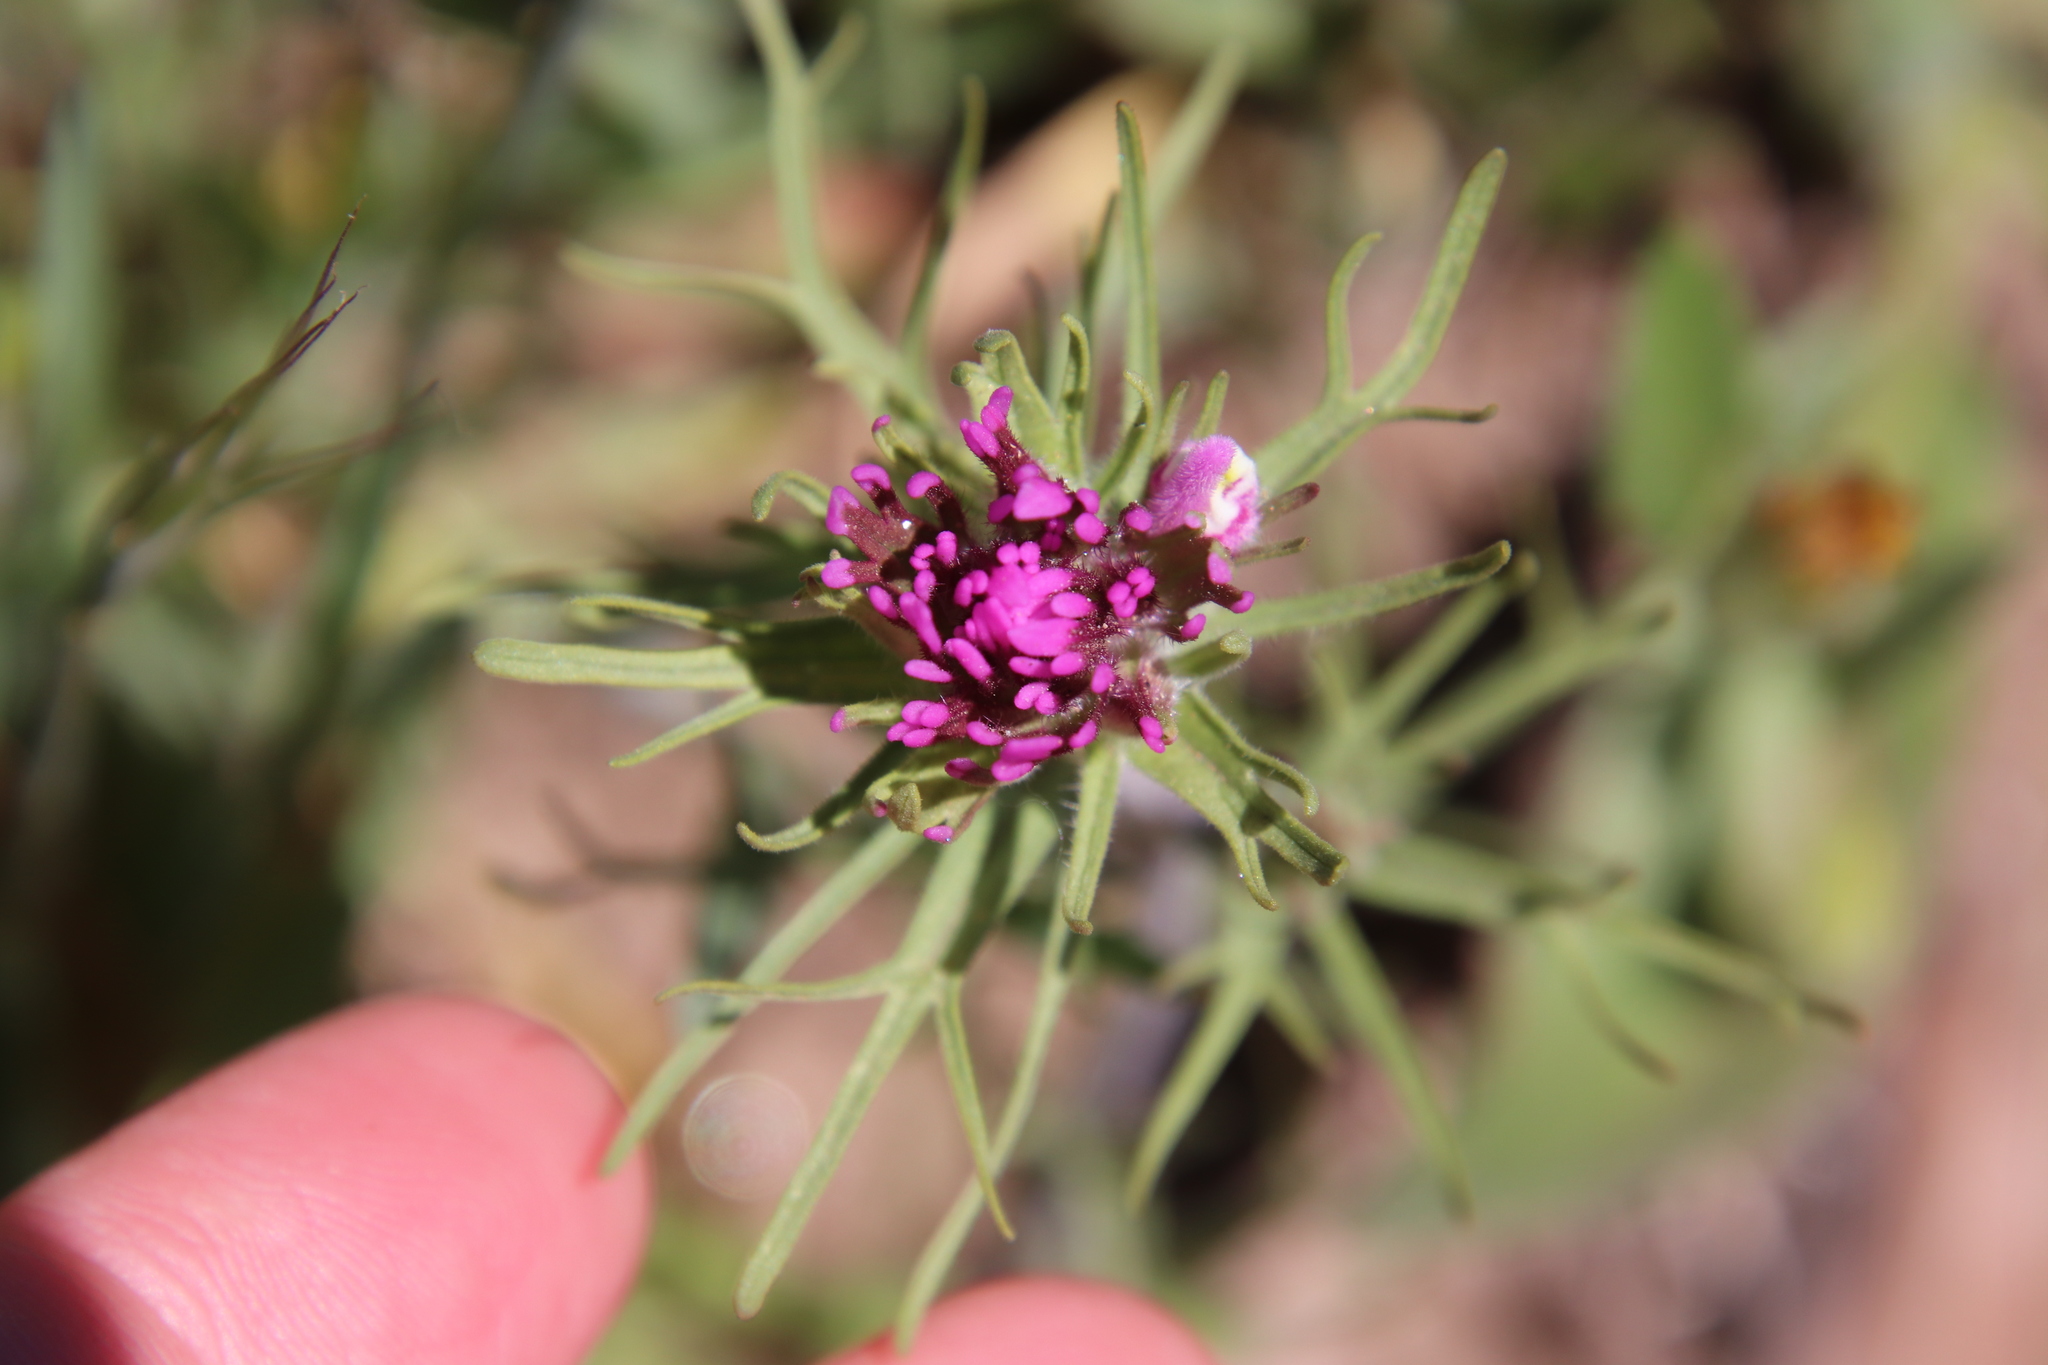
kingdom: Plantae
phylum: Tracheophyta
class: Magnoliopsida
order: Lamiales
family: Orobanchaceae
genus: Castilleja
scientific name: Castilleja exserta
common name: Purple owl-clover
